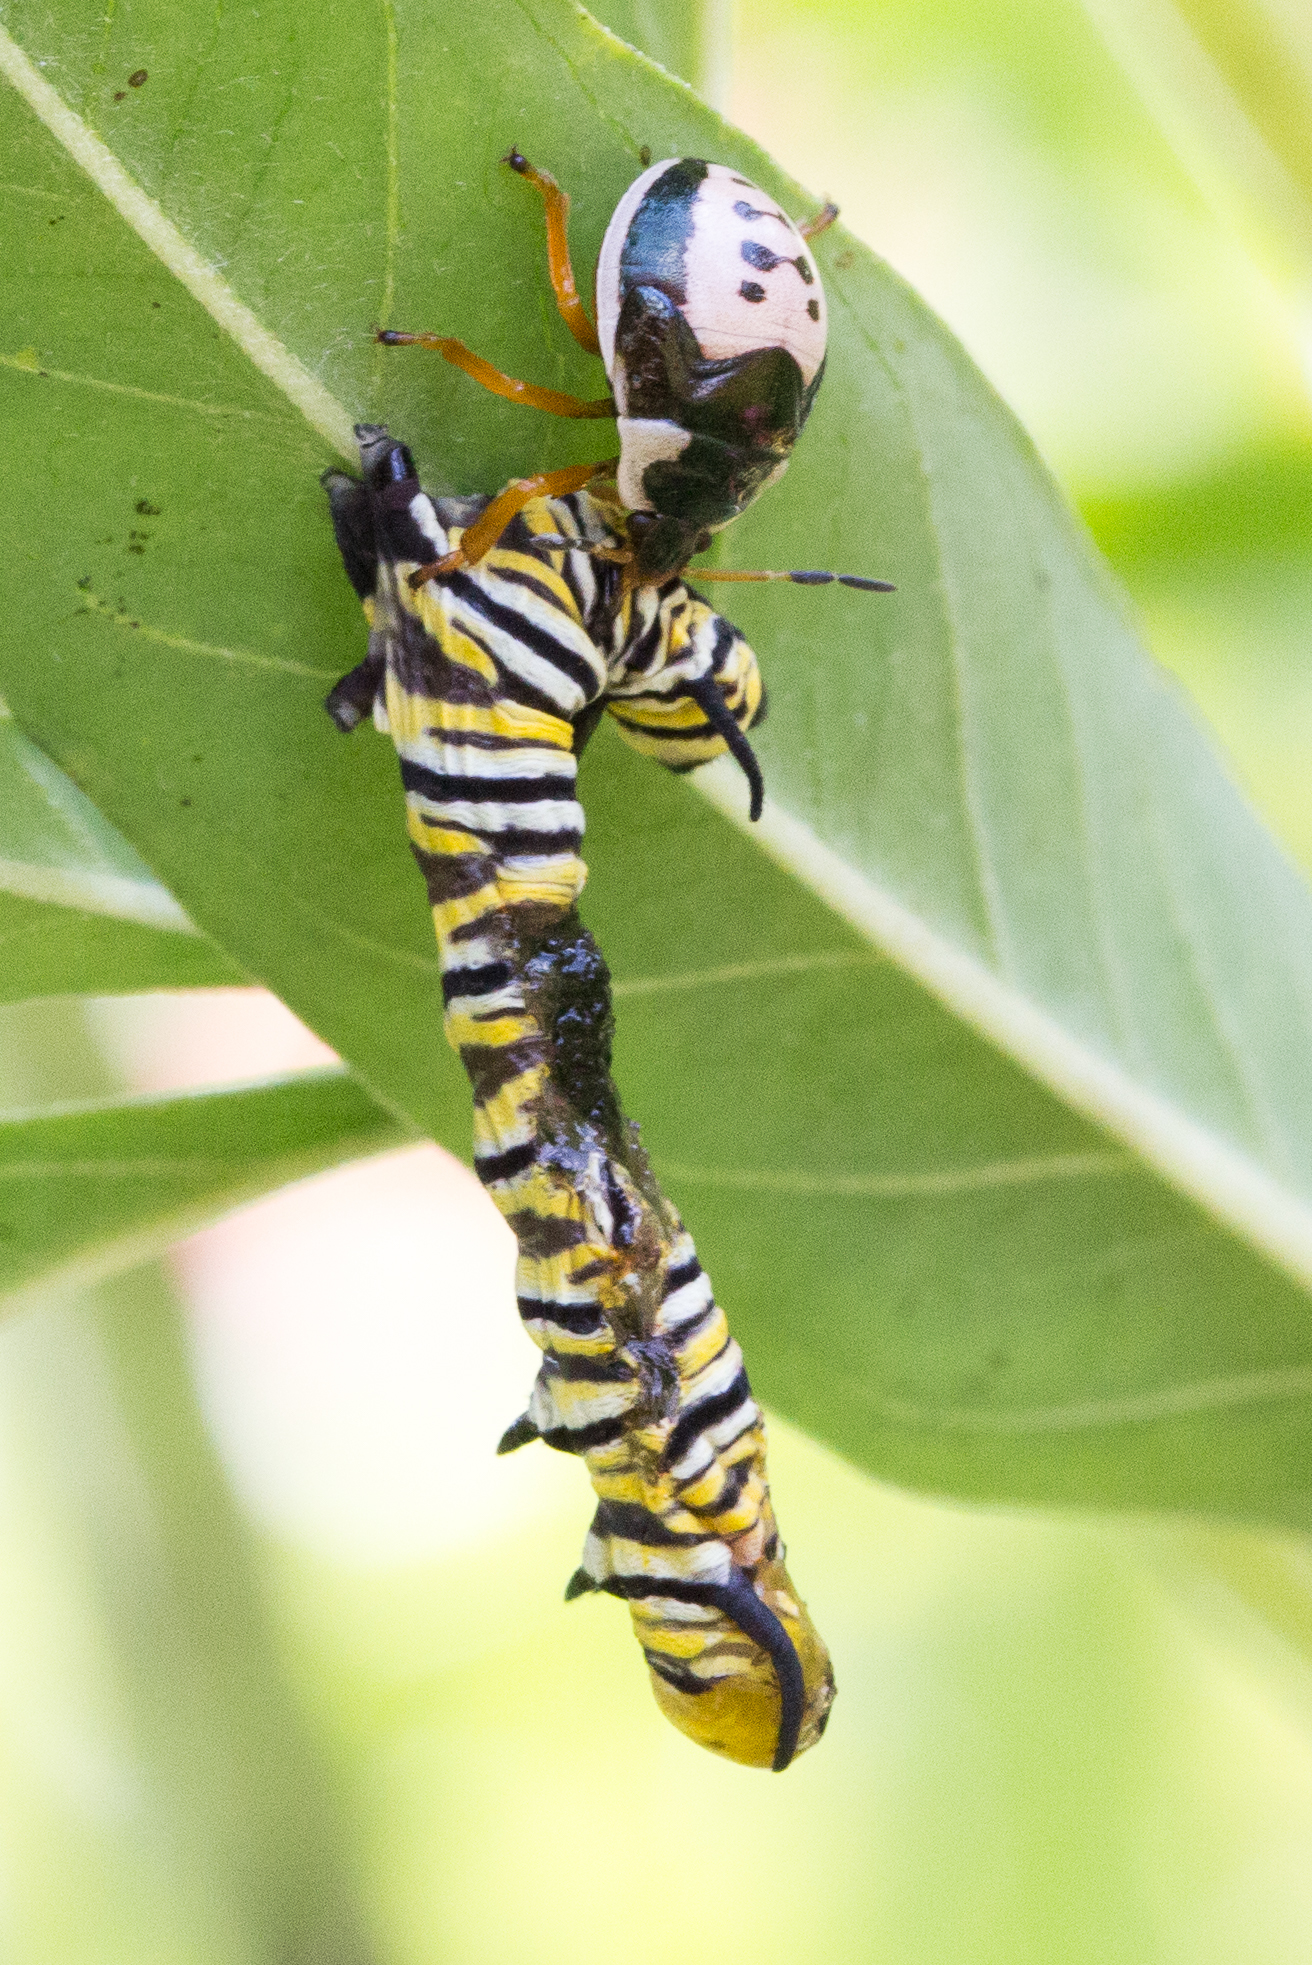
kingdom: Animalia
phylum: Arthropoda
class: Insecta
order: Hemiptera
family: Pentatomidae
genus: Stiretrus
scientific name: Stiretrus anchorago
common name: Anchor stink bug
